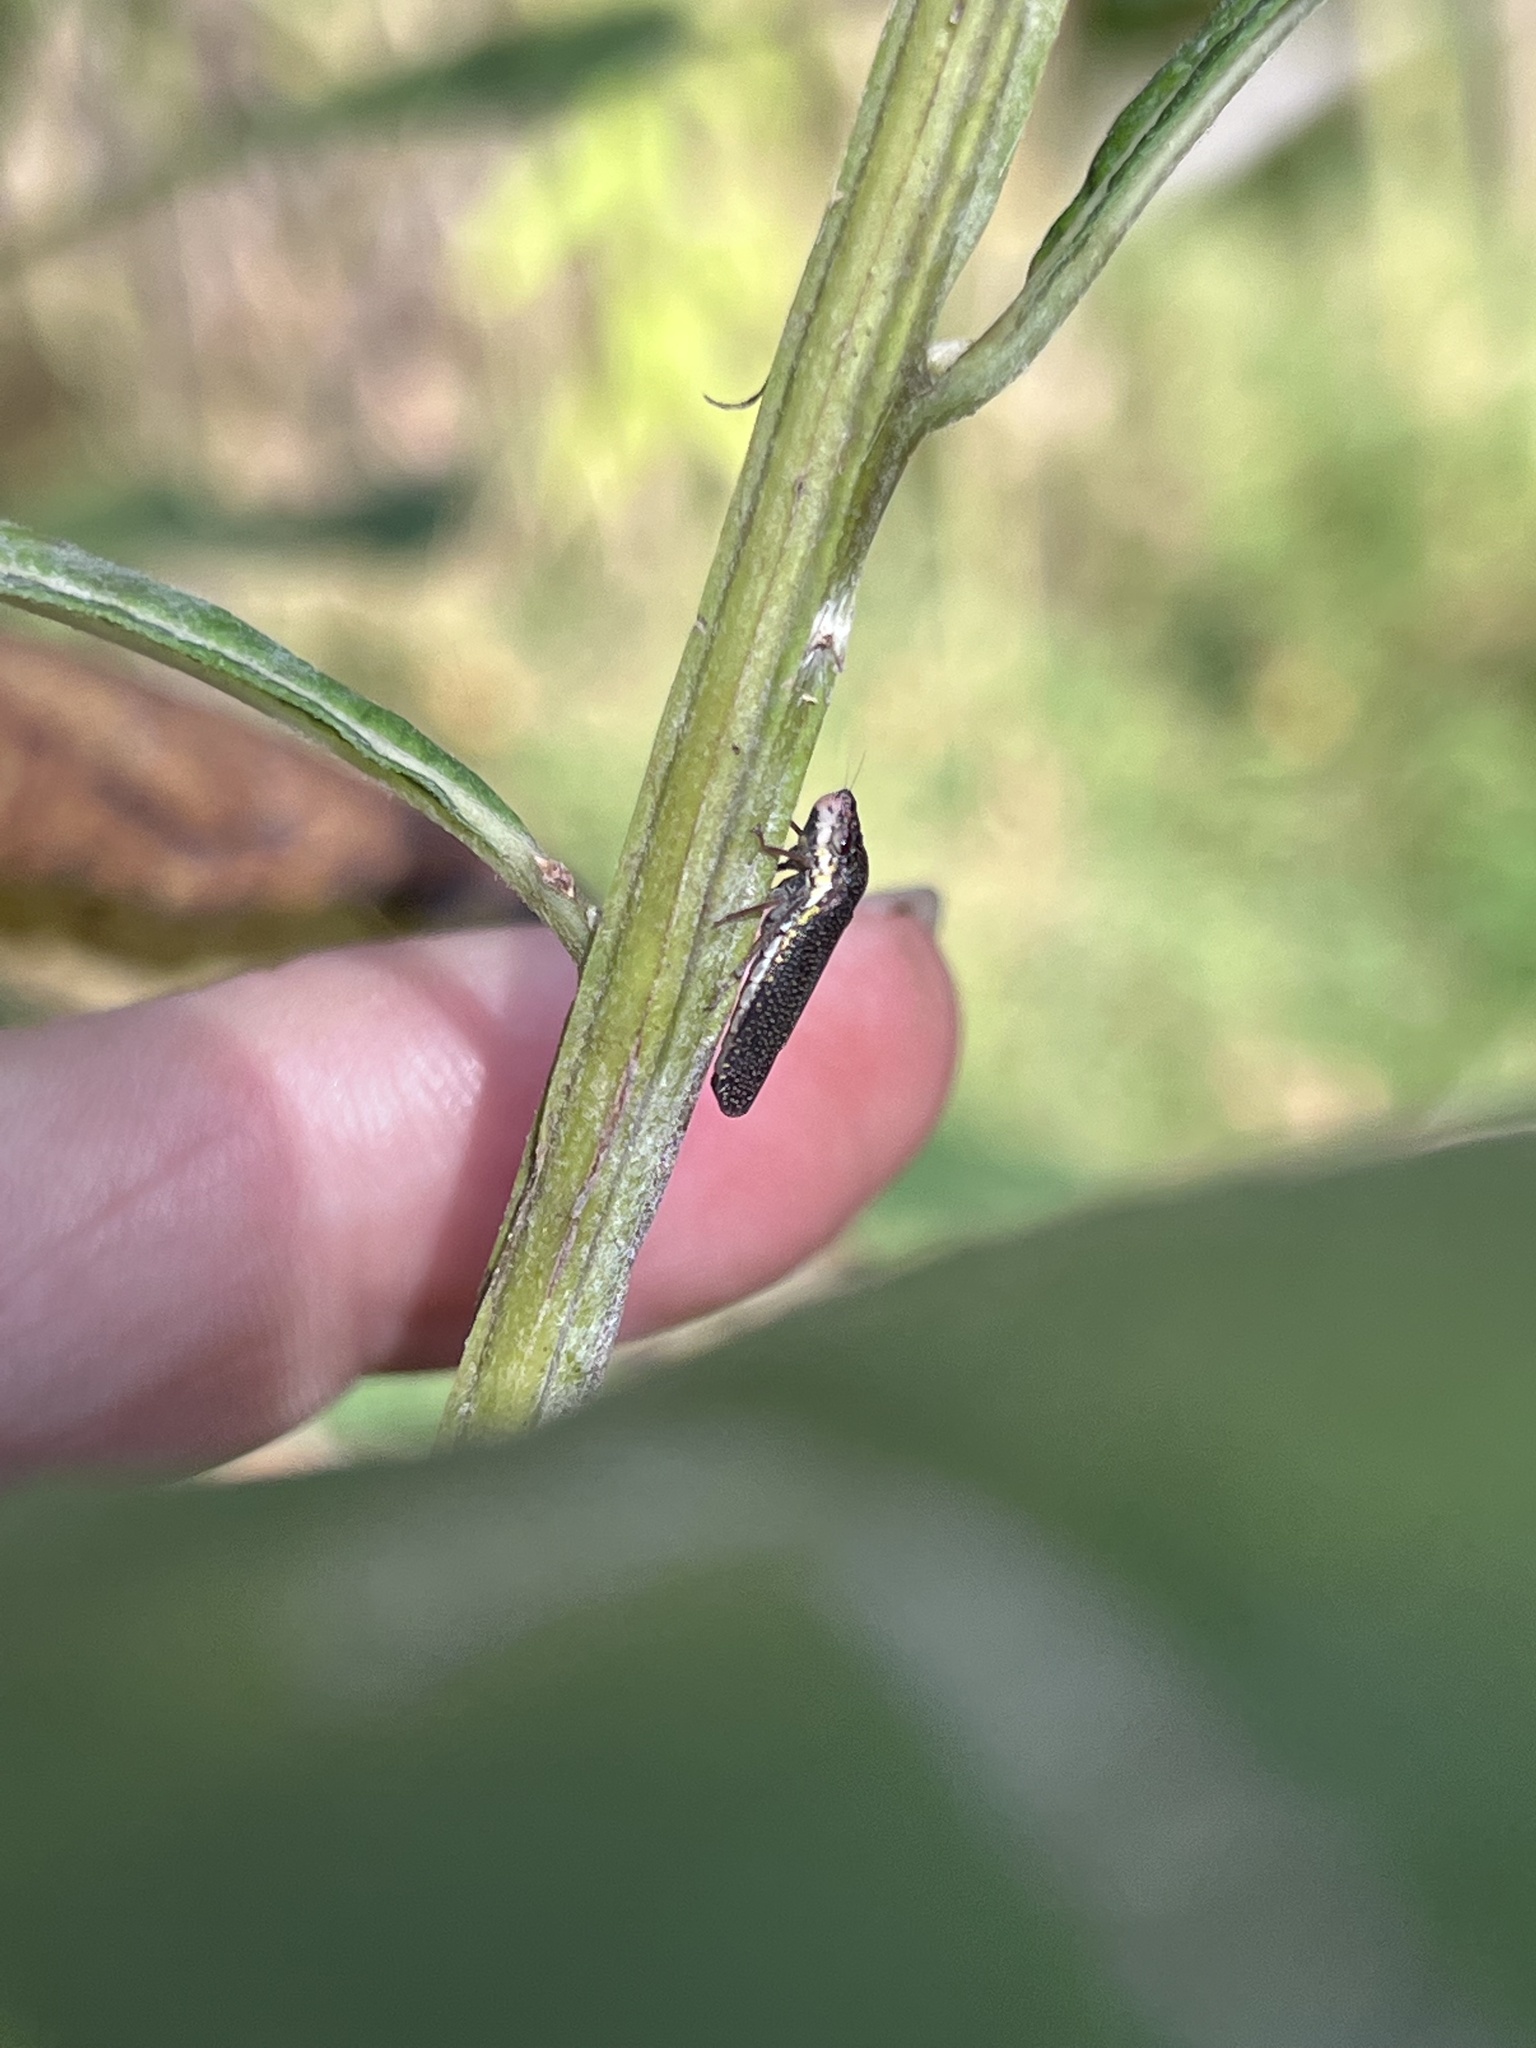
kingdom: Animalia
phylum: Arthropoda
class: Insecta
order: Hemiptera
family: Cicadellidae
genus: Paraulacizes
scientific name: Paraulacizes irrorata
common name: Speckled sharpshooter
